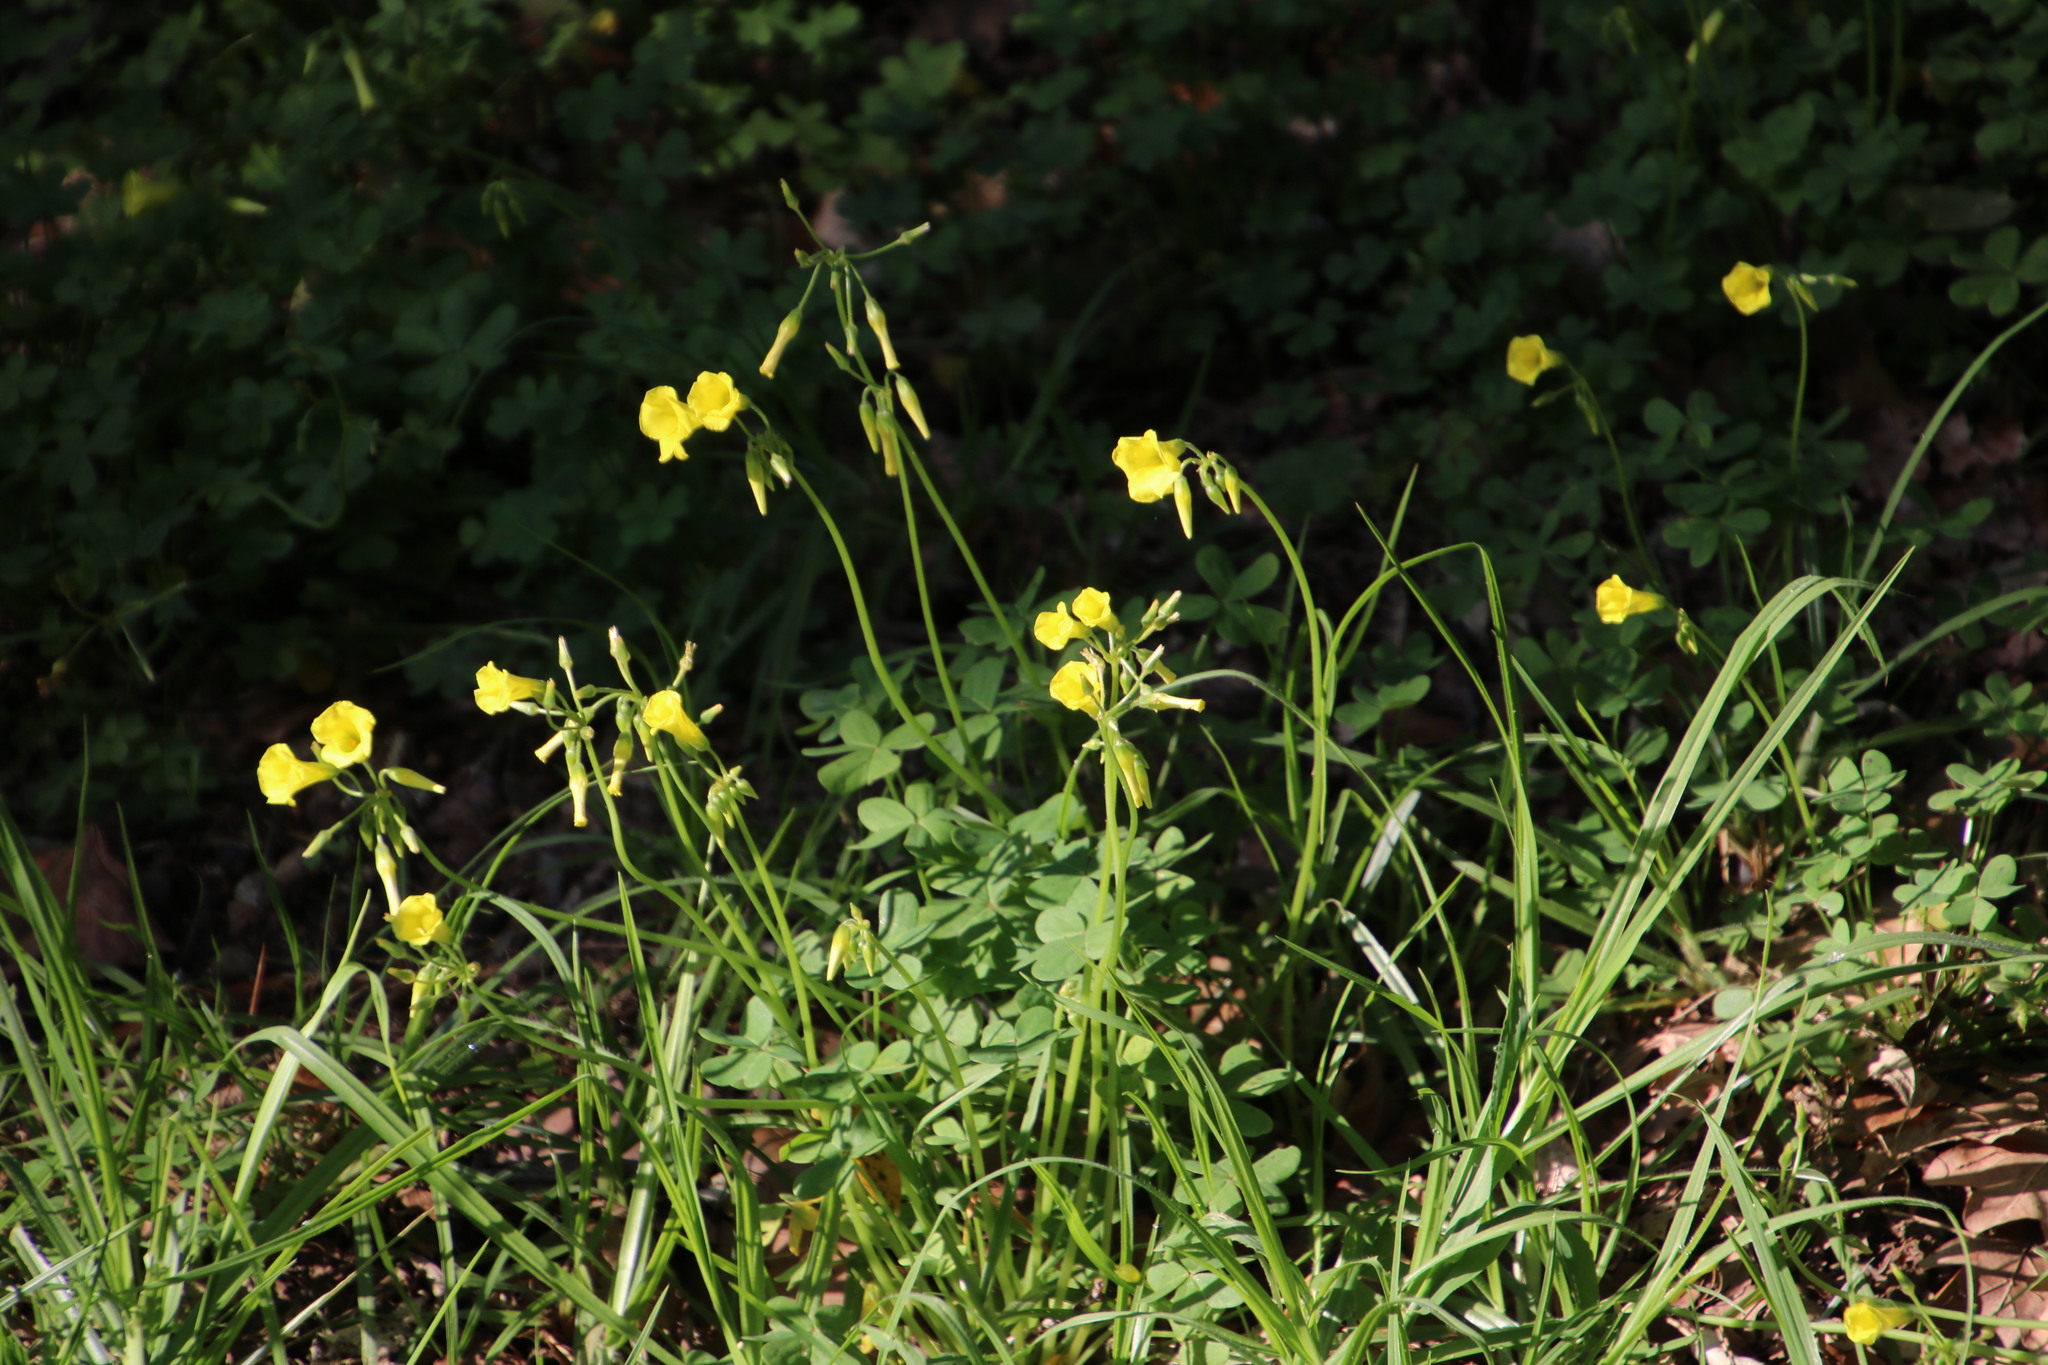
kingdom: Plantae
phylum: Tracheophyta
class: Magnoliopsida
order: Oxalidales
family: Oxalidaceae
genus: Oxalis
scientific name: Oxalis pes-caprae
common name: Bermuda-buttercup
